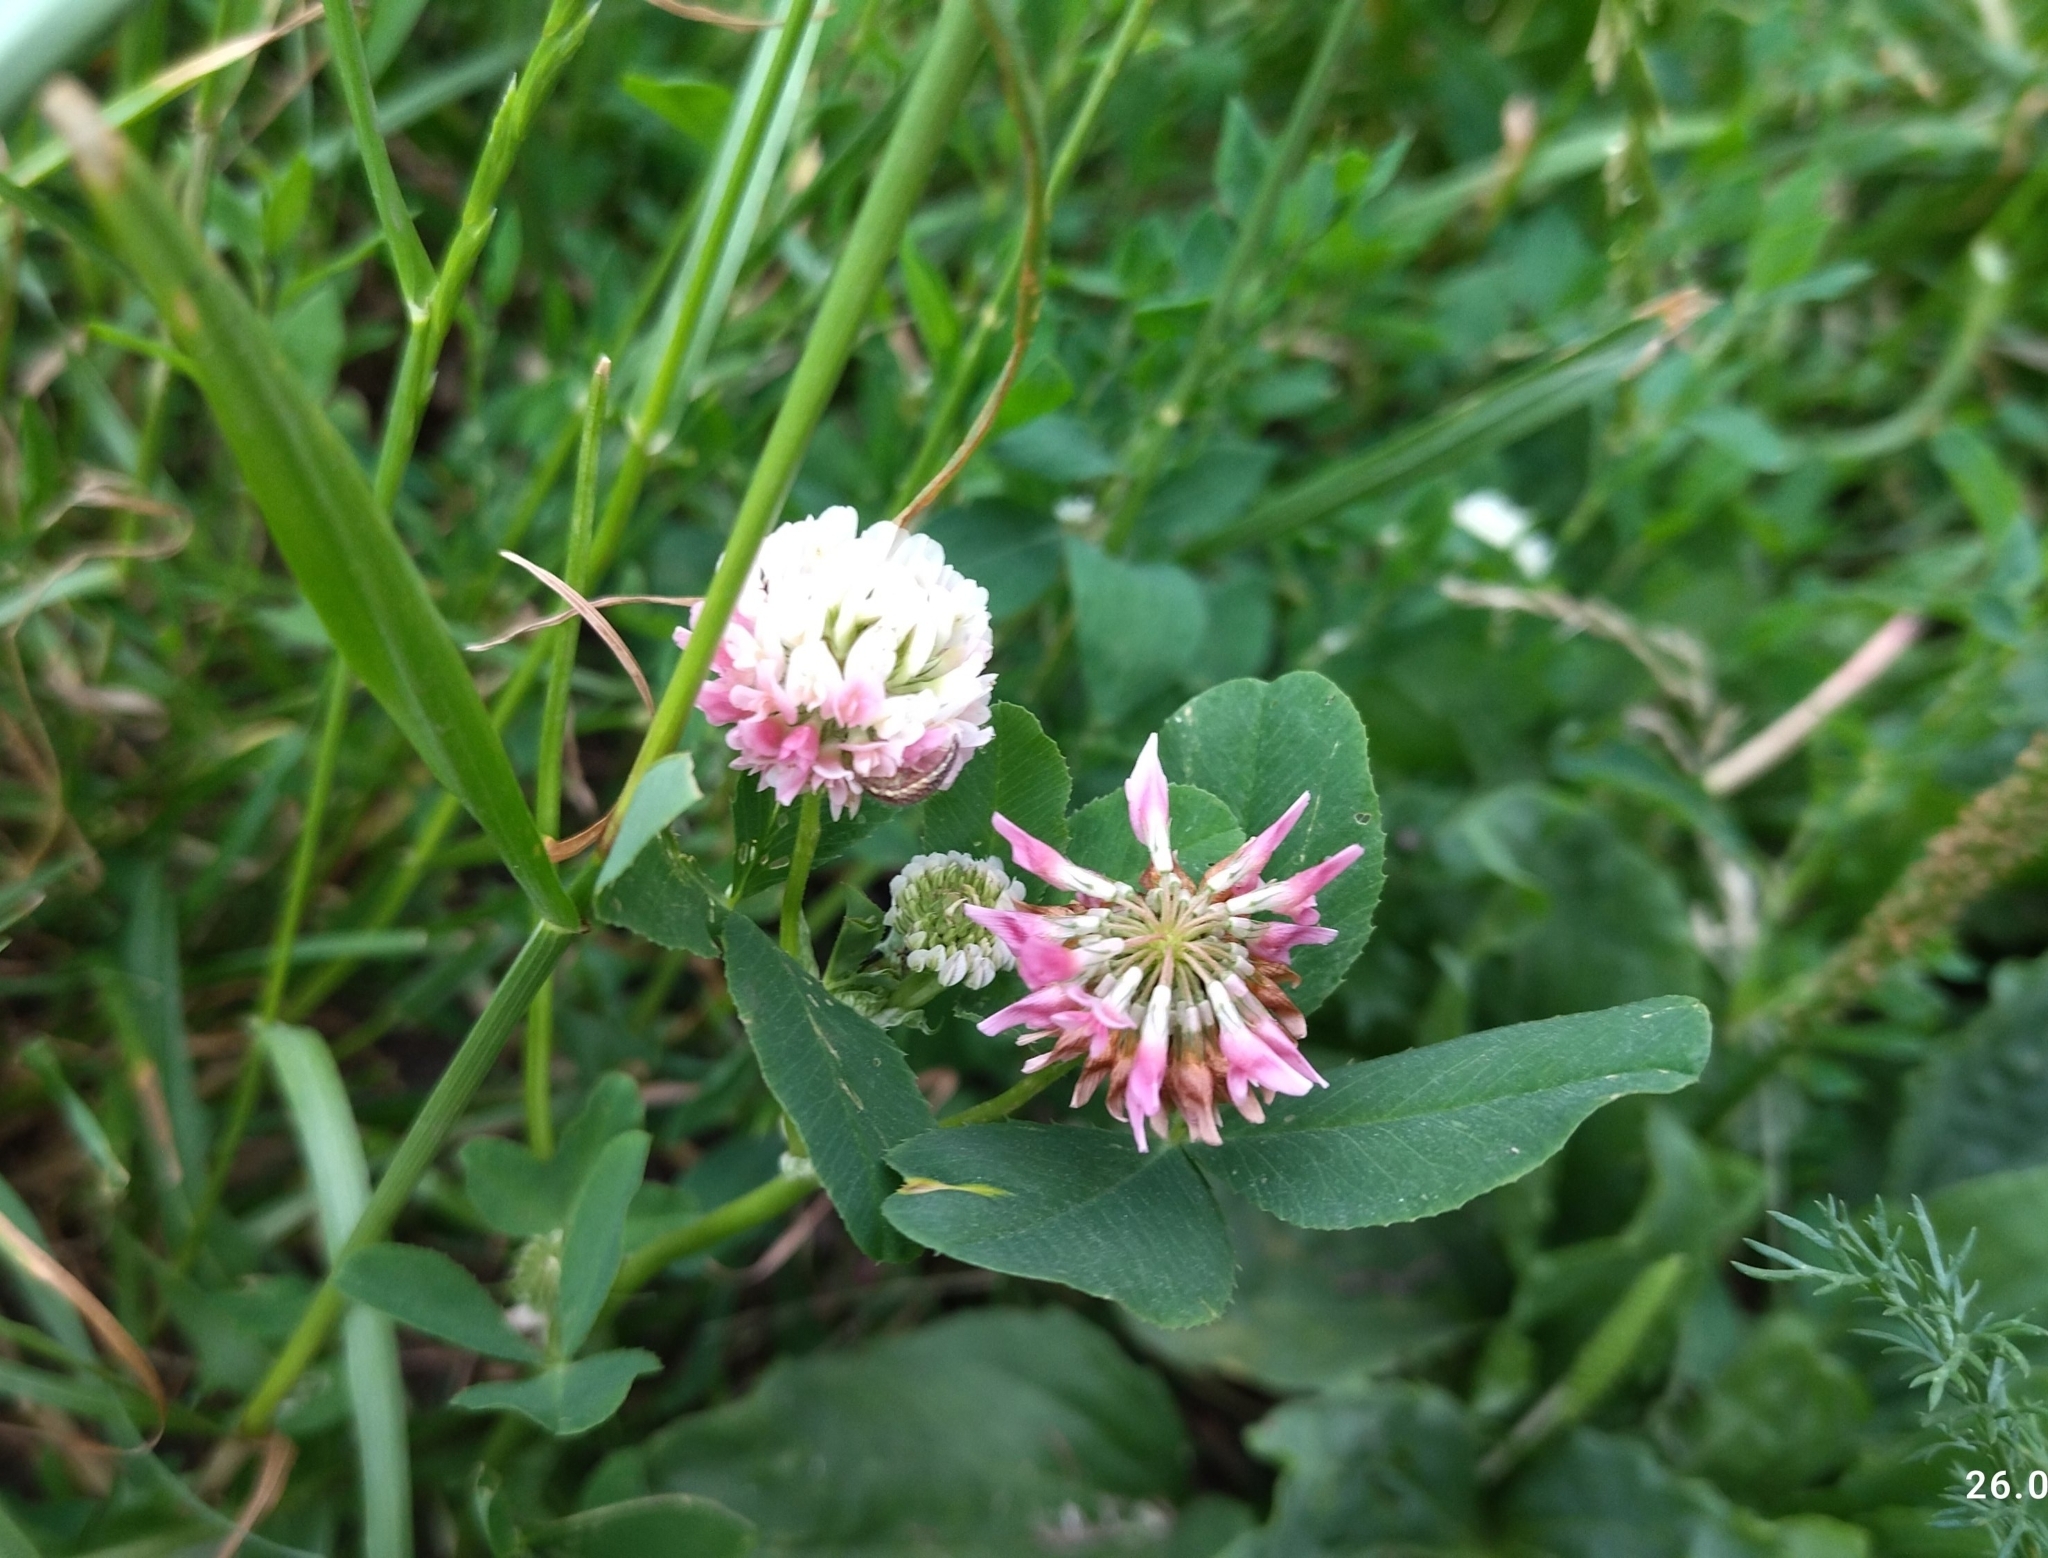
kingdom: Plantae
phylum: Tracheophyta
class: Magnoliopsida
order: Fabales
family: Fabaceae
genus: Trifolium
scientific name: Trifolium hybridum
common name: Alsike clover
